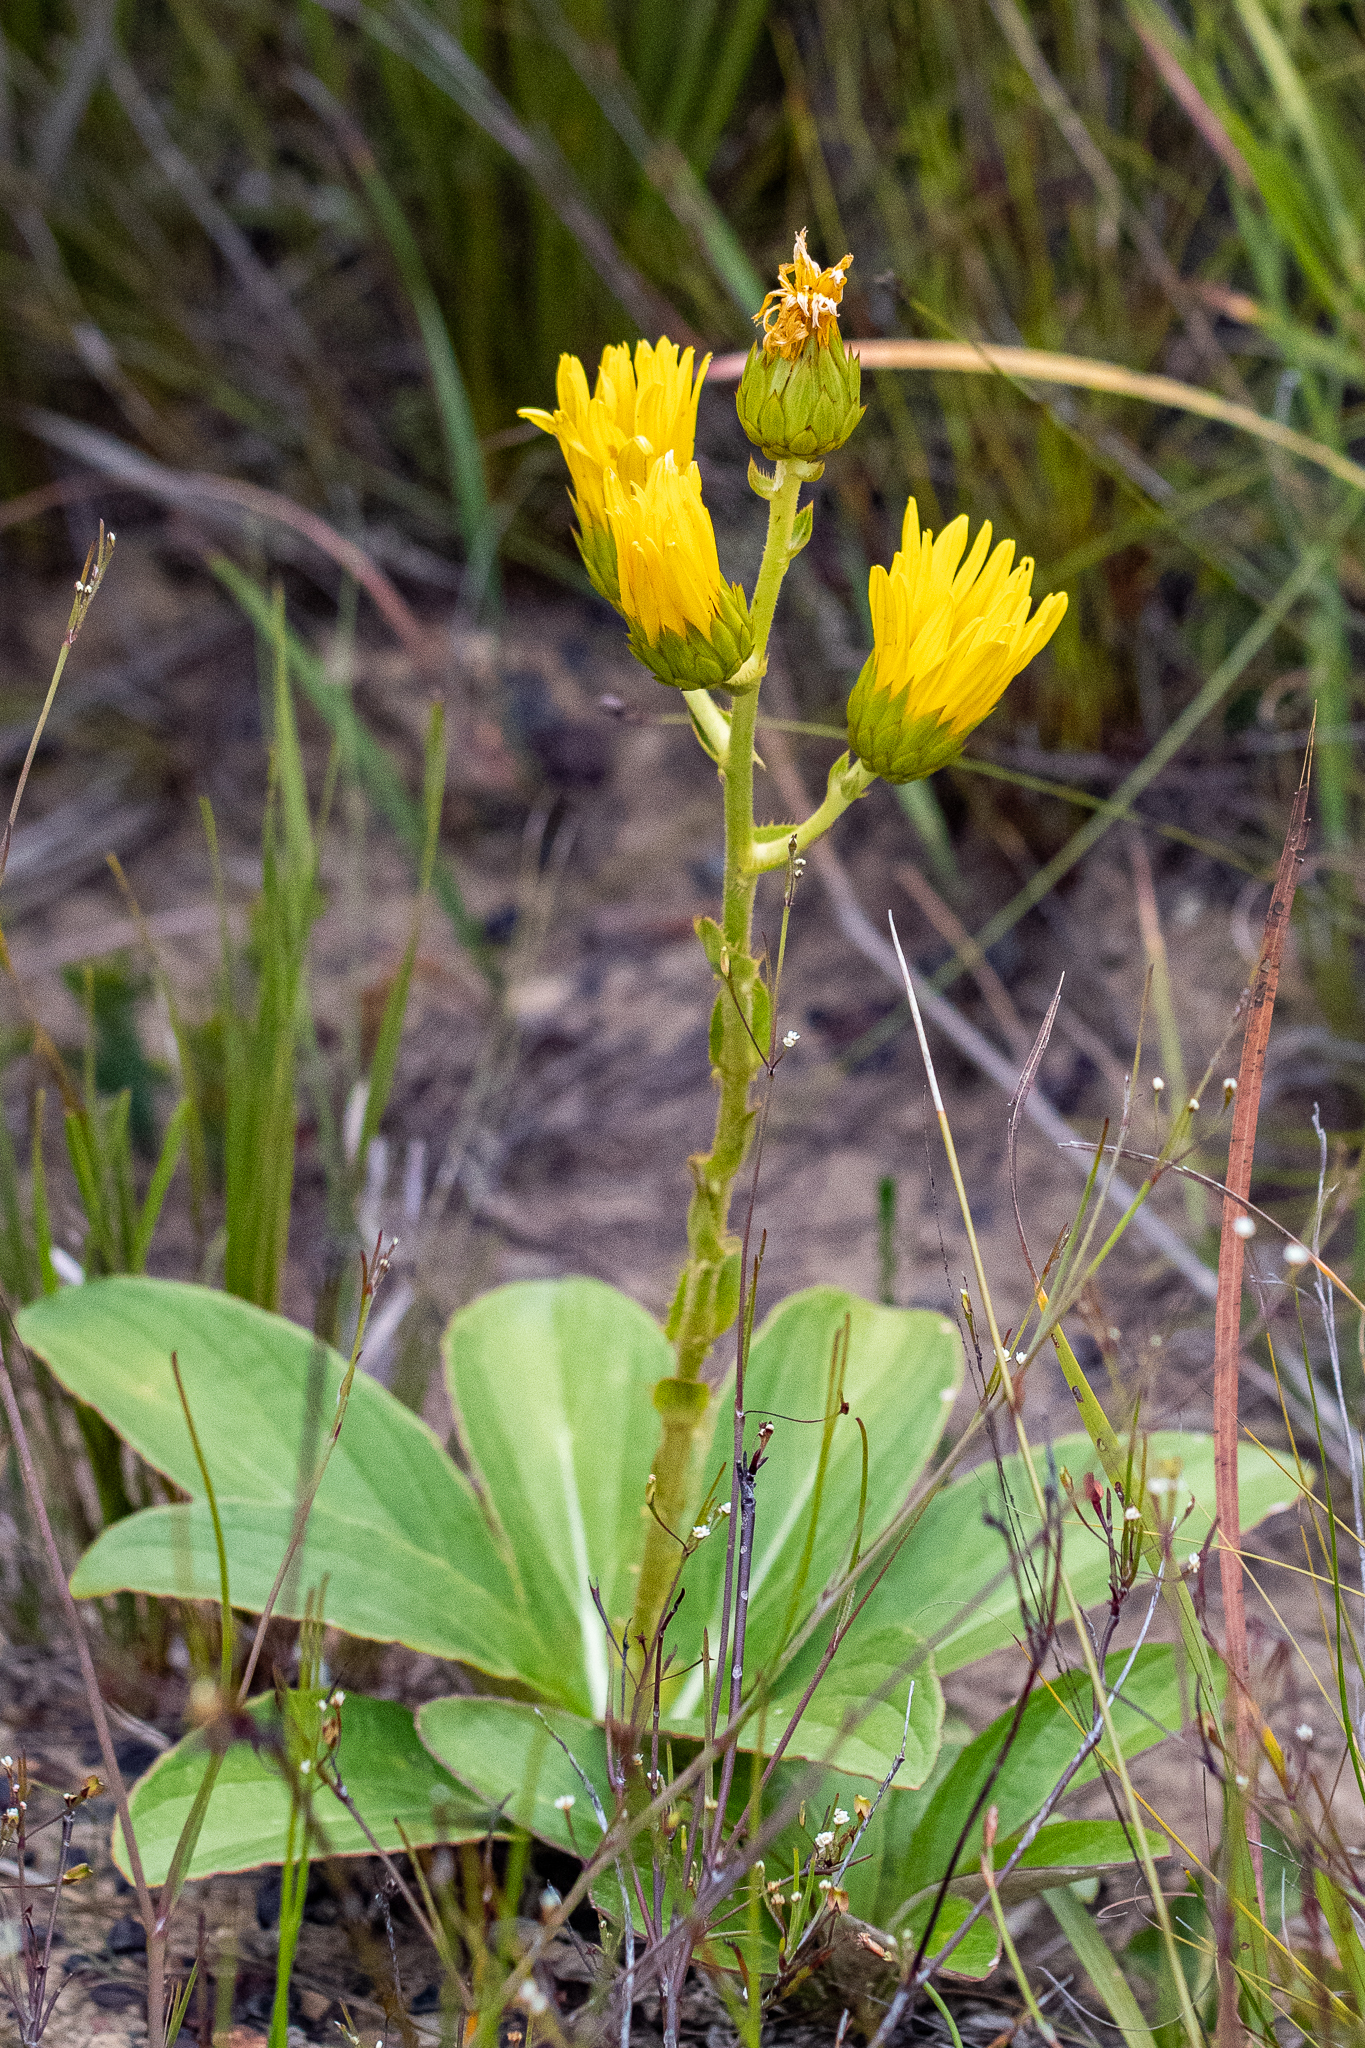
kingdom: Plantae
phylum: Tracheophyta
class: Magnoliopsida
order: Asterales
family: Asteraceae
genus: Berkheya
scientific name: Berkheya herbacea
